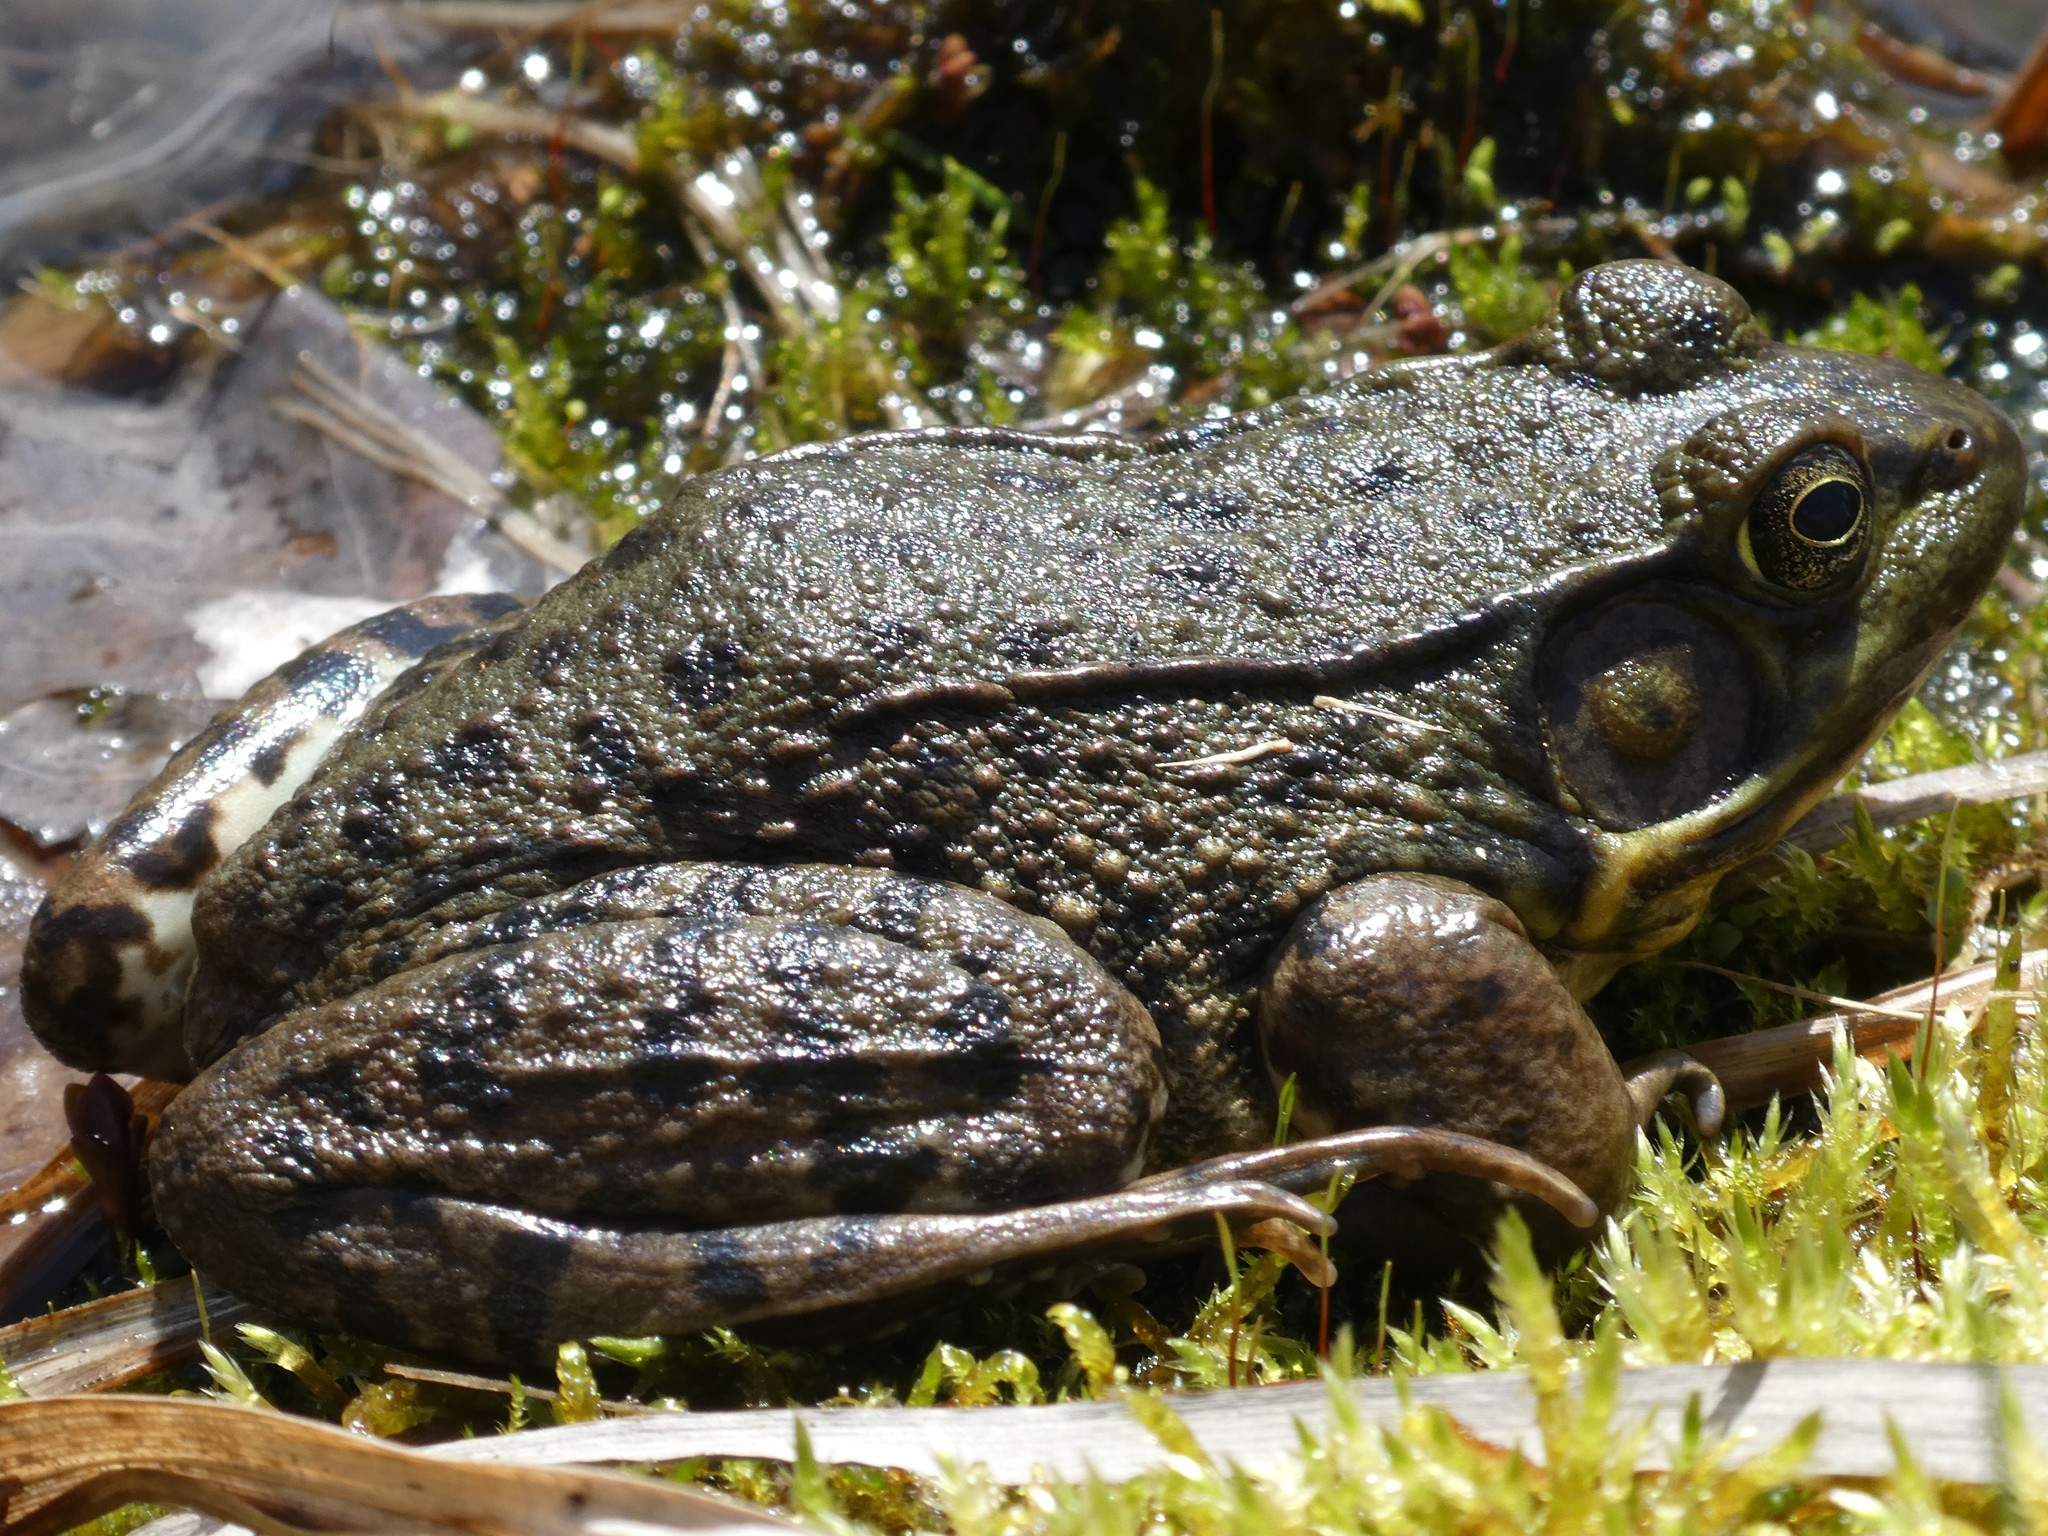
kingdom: Animalia
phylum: Chordata
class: Amphibia
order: Anura
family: Ranidae
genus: Lithobates
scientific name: Lithobates clamitans
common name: Green frog
